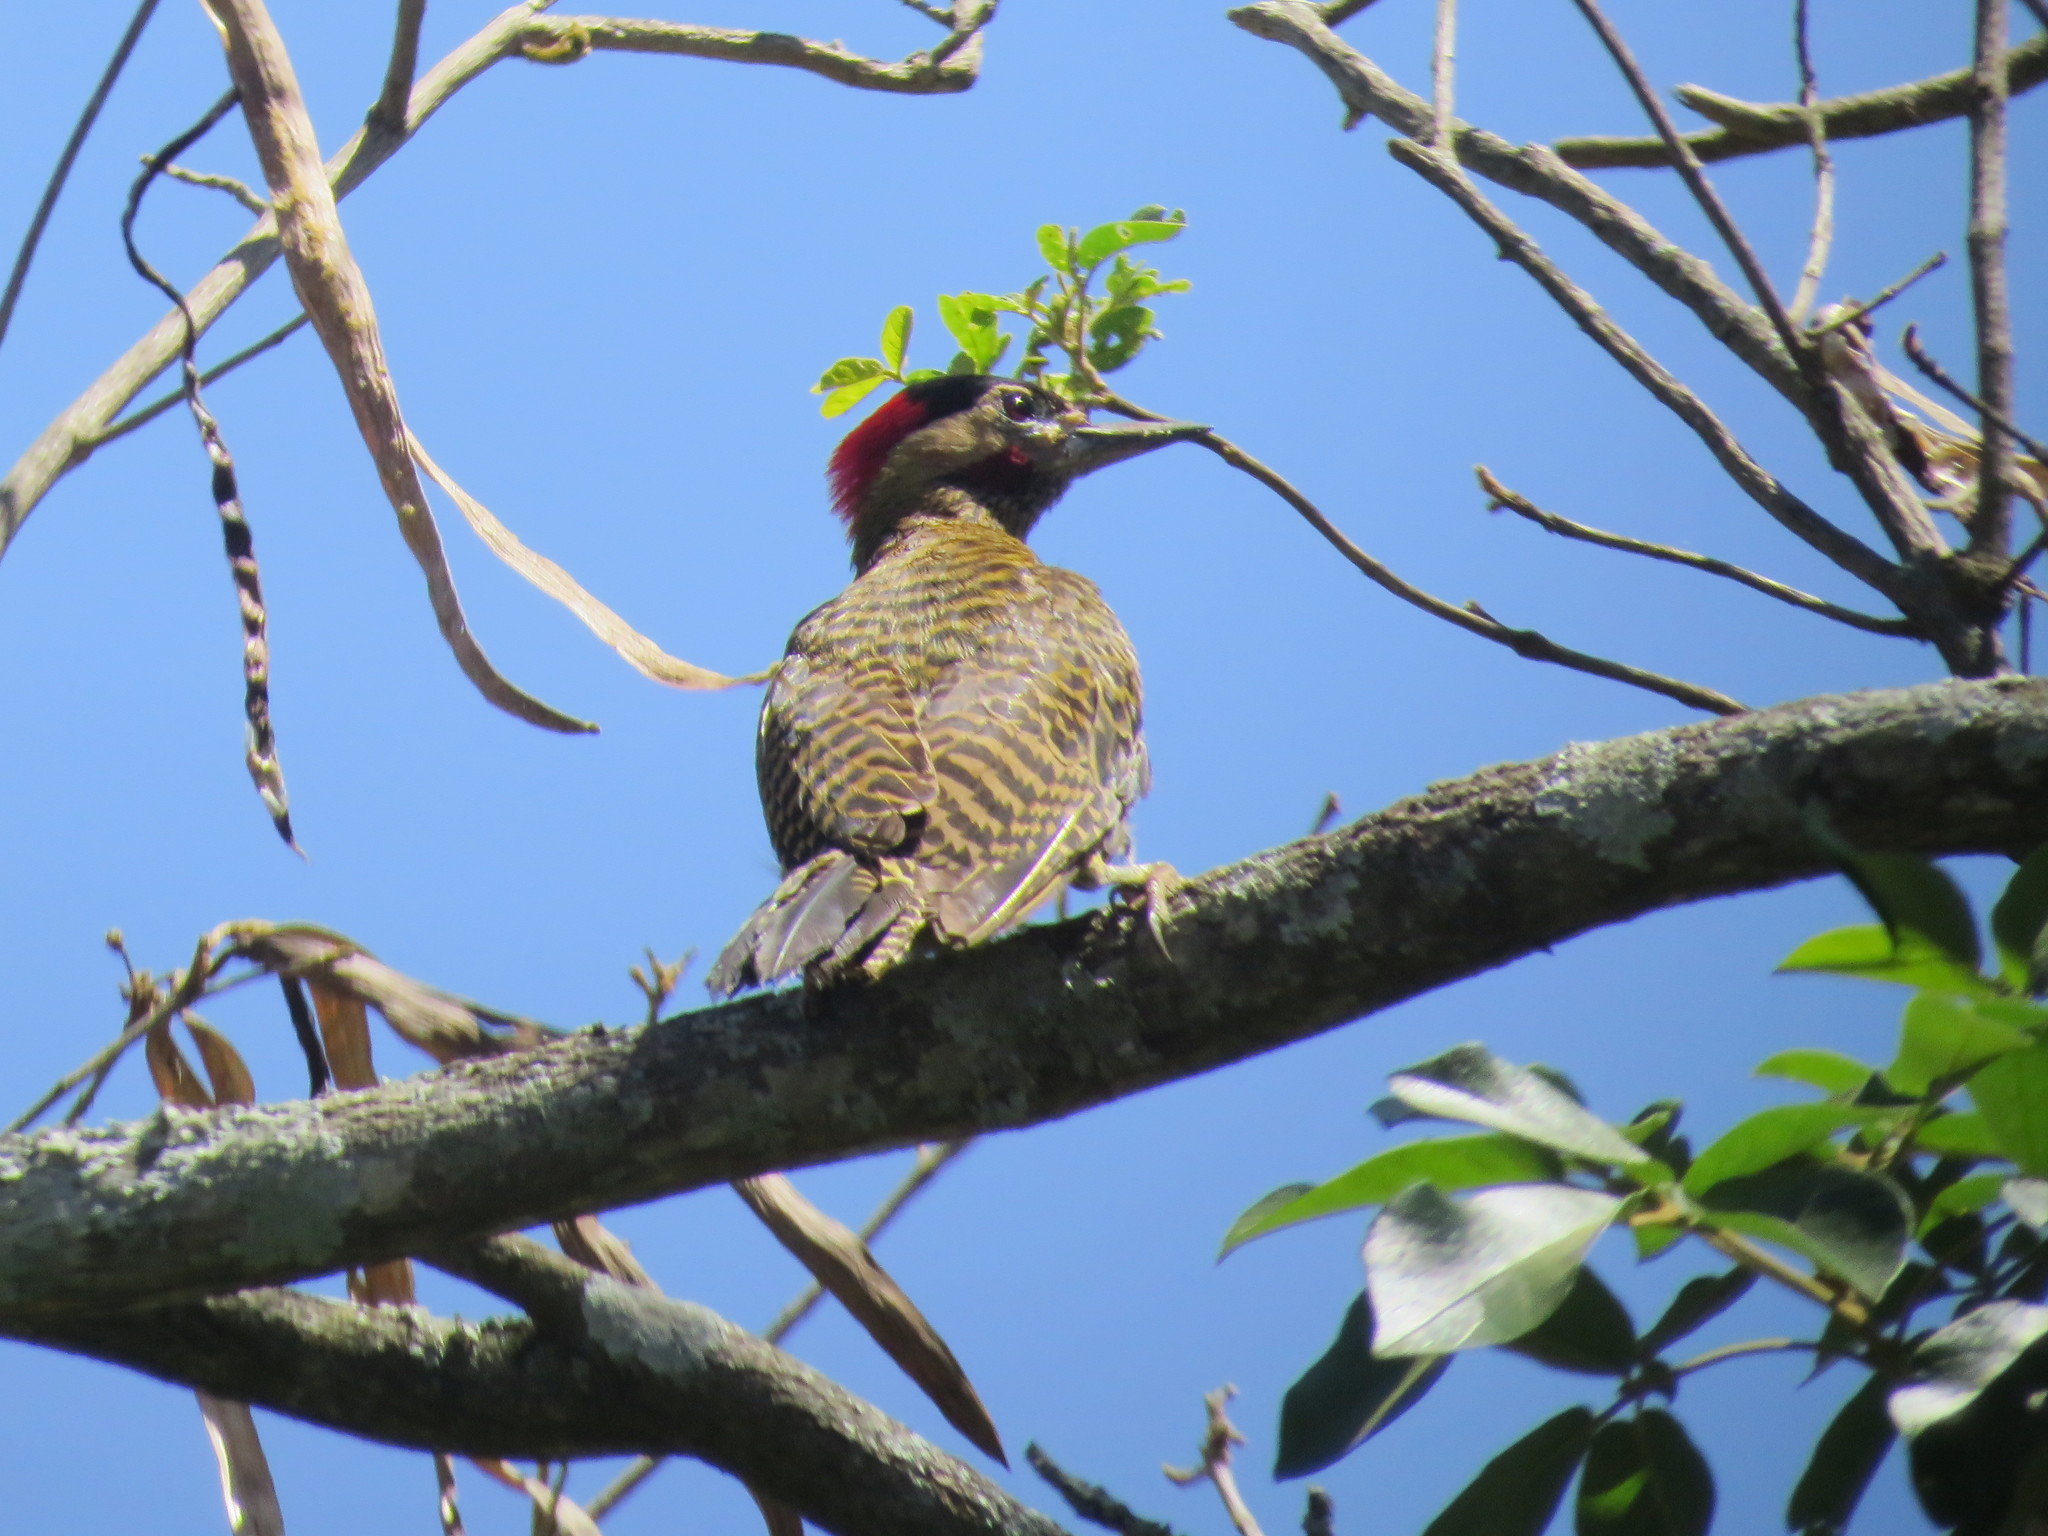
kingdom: Animalia
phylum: Chordata
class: Aves
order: Piciformes
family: Picidae
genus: Colaptes
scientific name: Colaptes melanochloros
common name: Green-barred woodpecker
